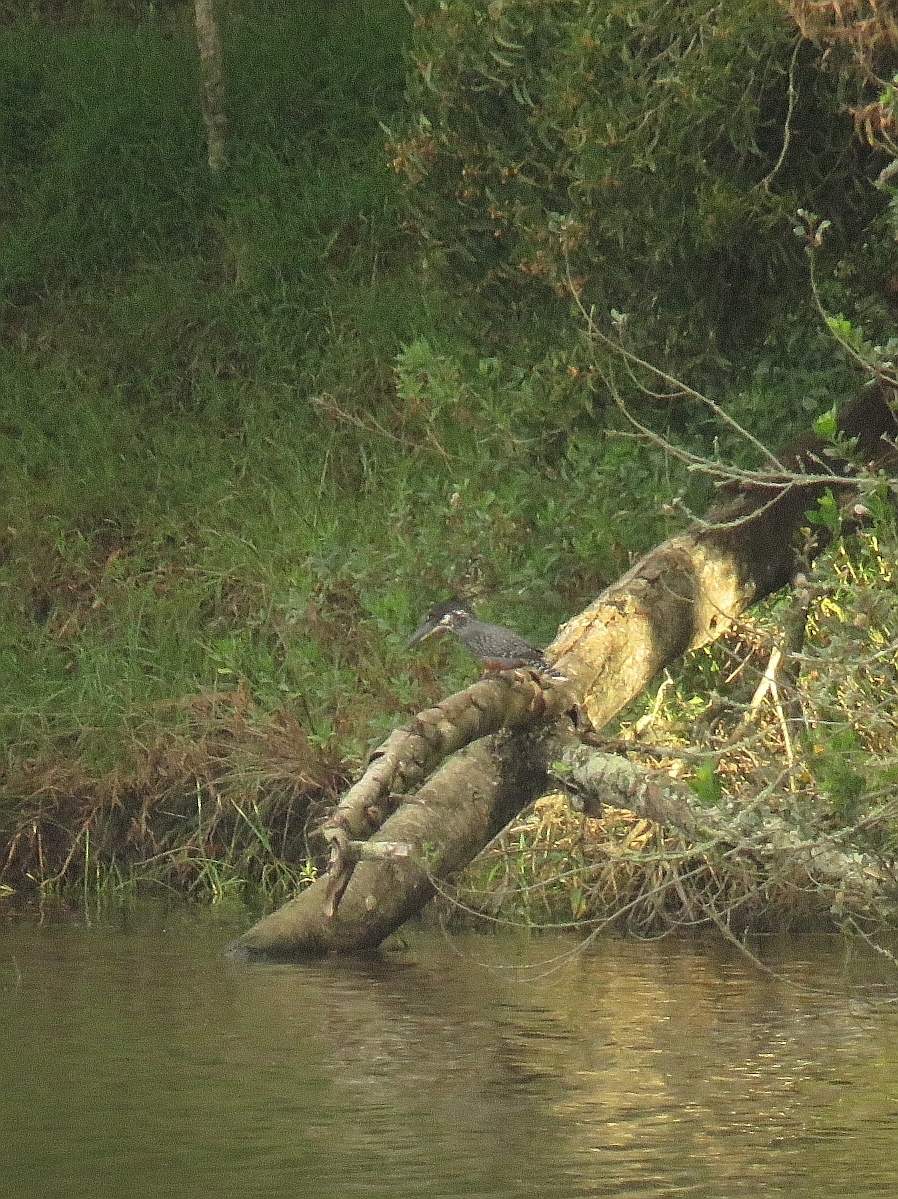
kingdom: Animalia
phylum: Chordata
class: Aves
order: Coraciiformes
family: Alcedinidae
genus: Megaceryle
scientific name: Megaceryle maxima
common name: Giant kingfisher
